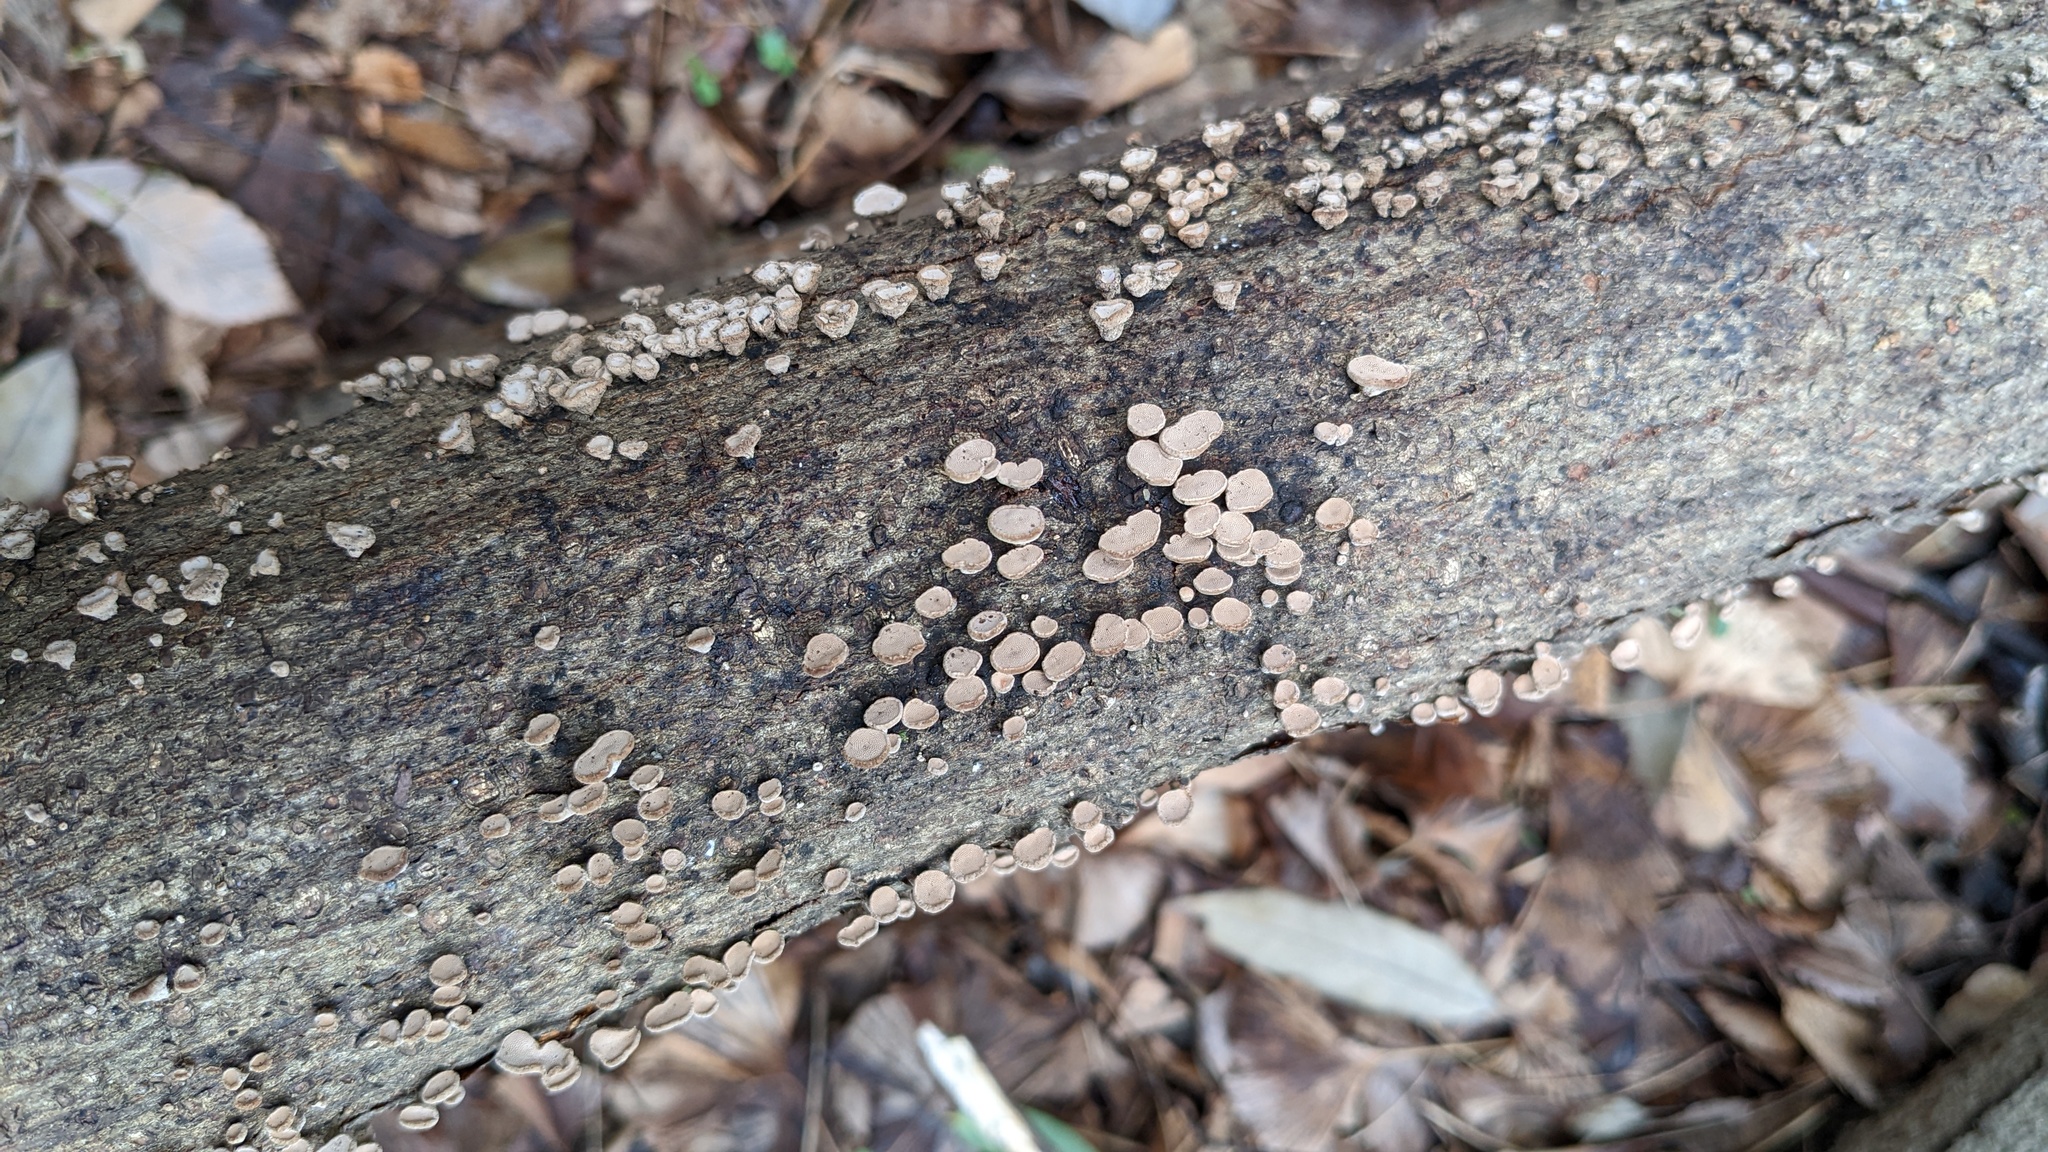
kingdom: Fungi
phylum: Basidiomycota
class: Agaricomycetes
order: Agaricales
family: Schizophyllaceae
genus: Porodisculus
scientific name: Porodisculus pendulus
